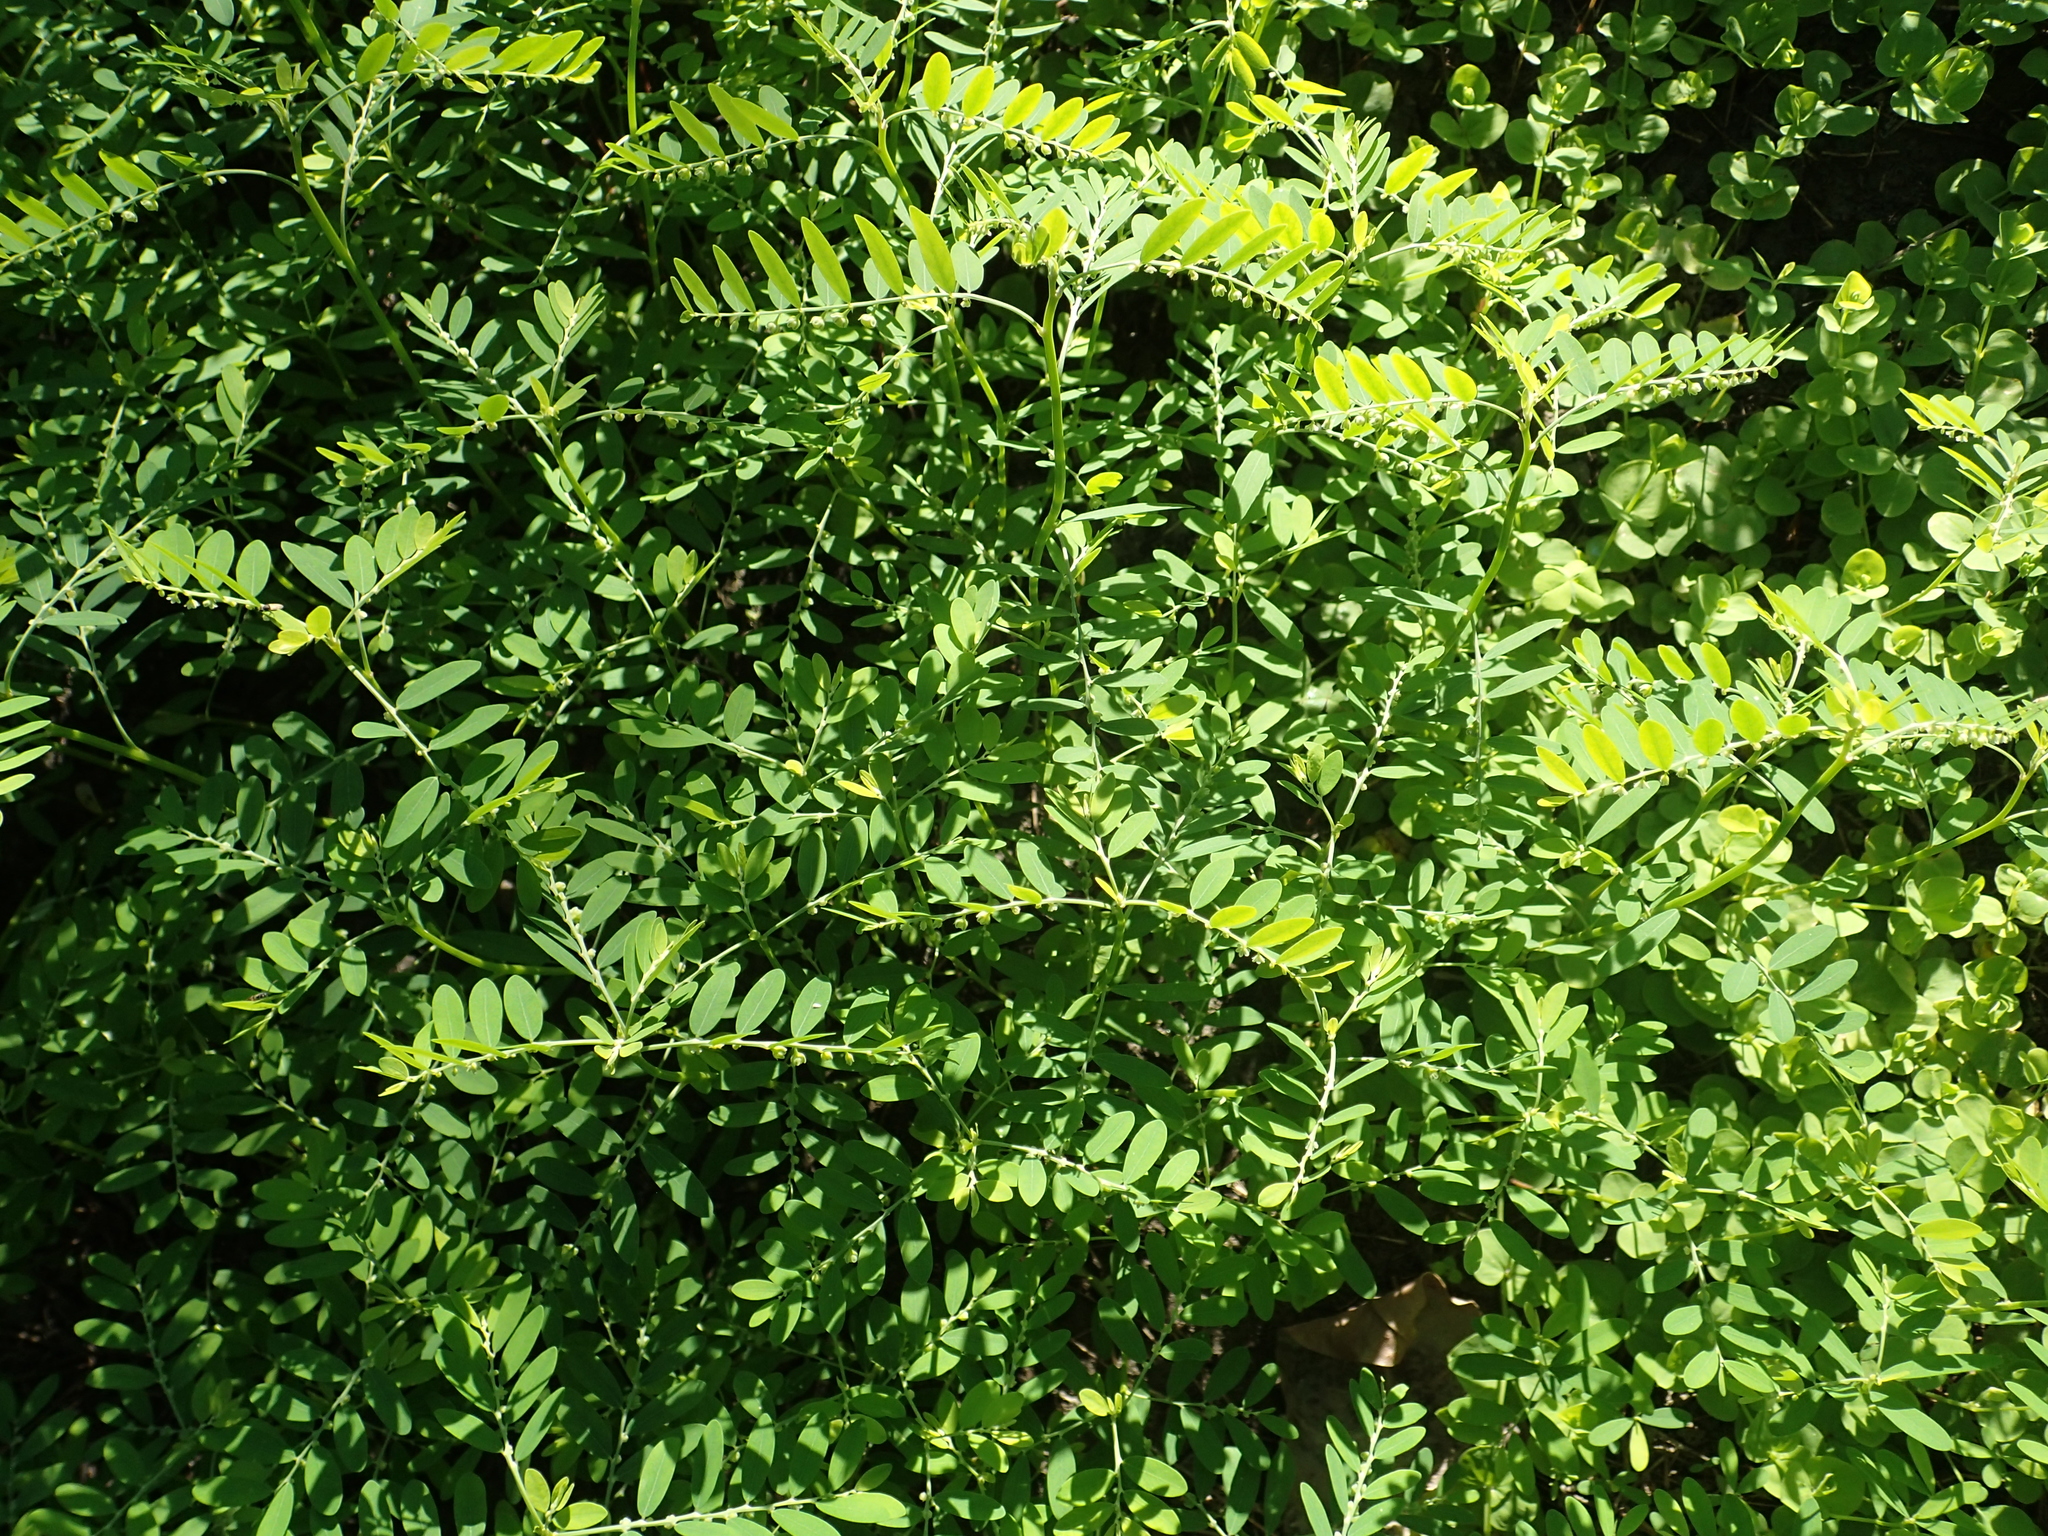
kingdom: Plantae
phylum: Tracheophyta
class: Magnoliopsida
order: Malpighiales
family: Phyllanthaceae
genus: Phyllanthus
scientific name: Phyllanthus debilis
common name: Niruri
